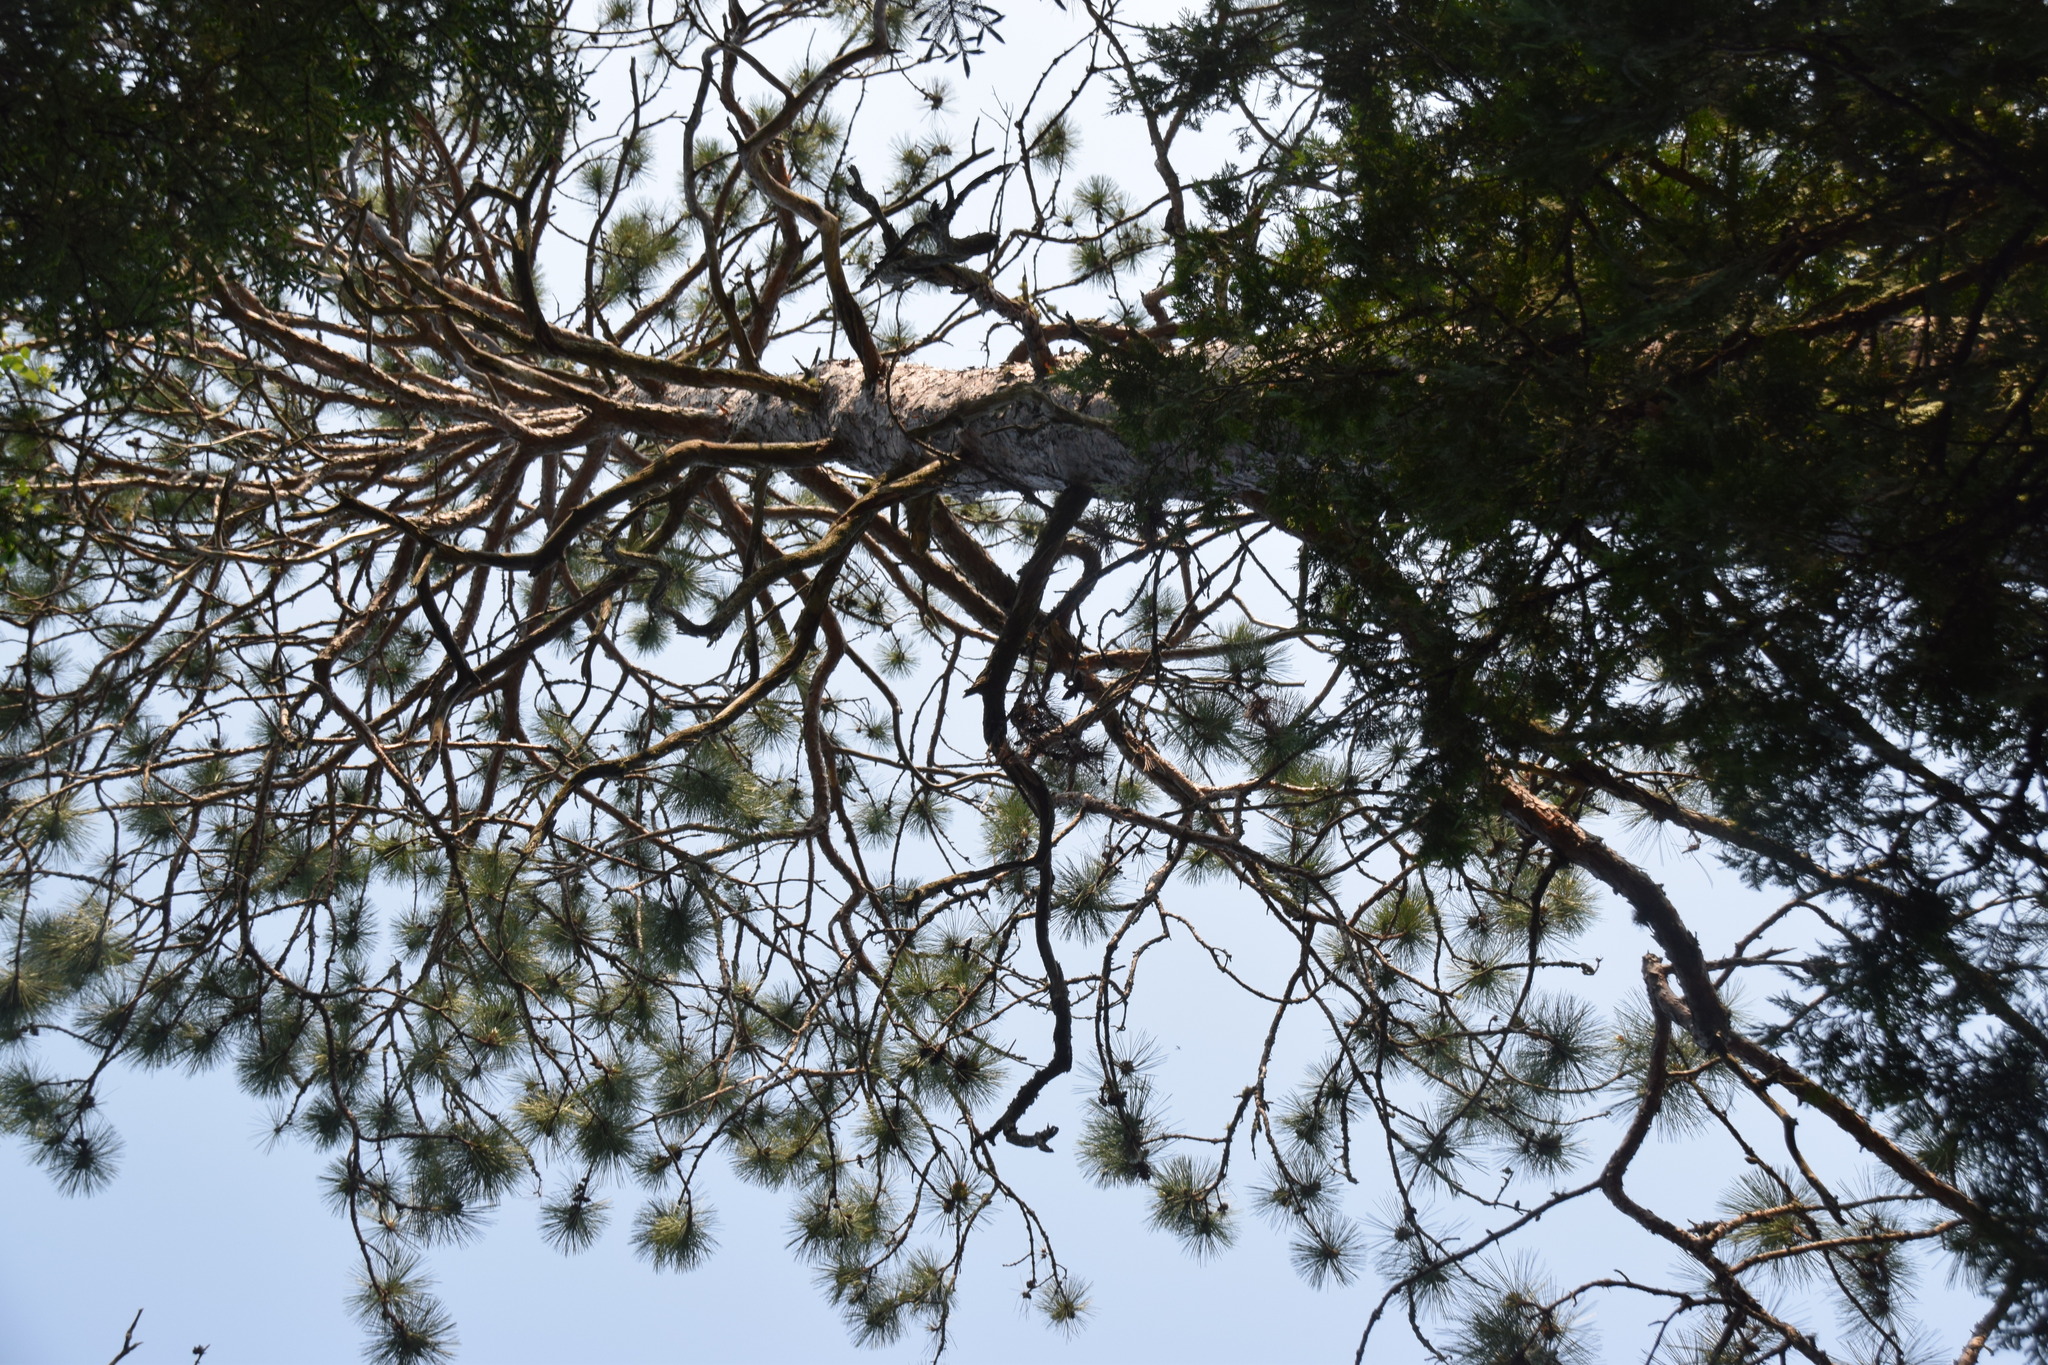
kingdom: Plantae
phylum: Tracheophyta
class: Pinopsida
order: Pinales
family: Pinaceae
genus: Pinus
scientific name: Pinus resinosa
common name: Norway pine
